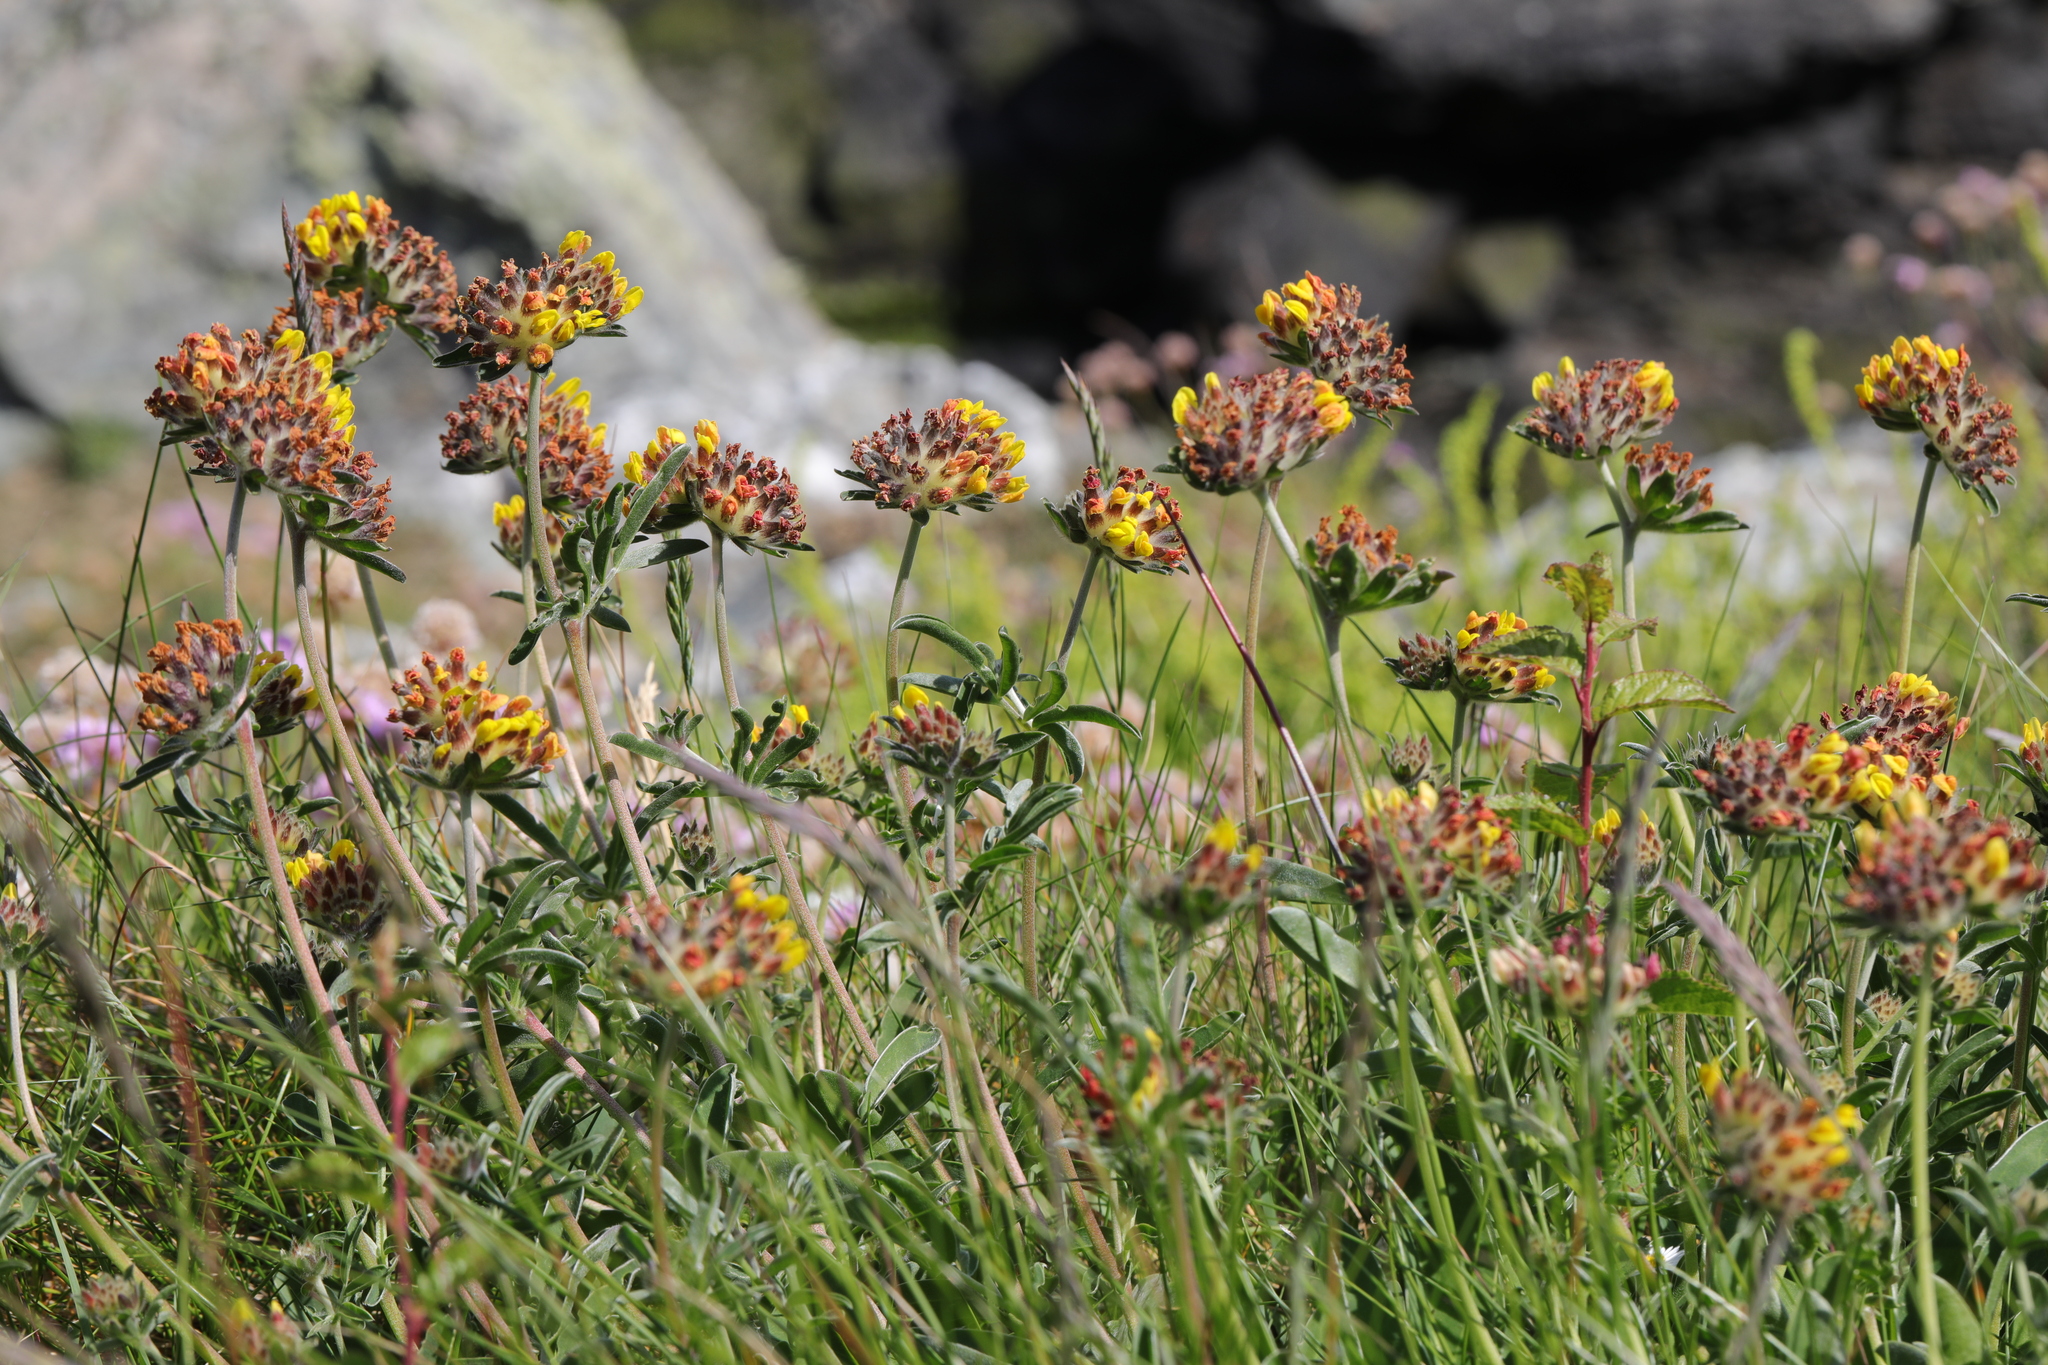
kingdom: Plantae
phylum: Tracheophyta
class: Magnoliopsida
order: Fabales
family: Fabaceae
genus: Anthyllis
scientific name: Anthyllis vulneraria
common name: Kidney vetch
